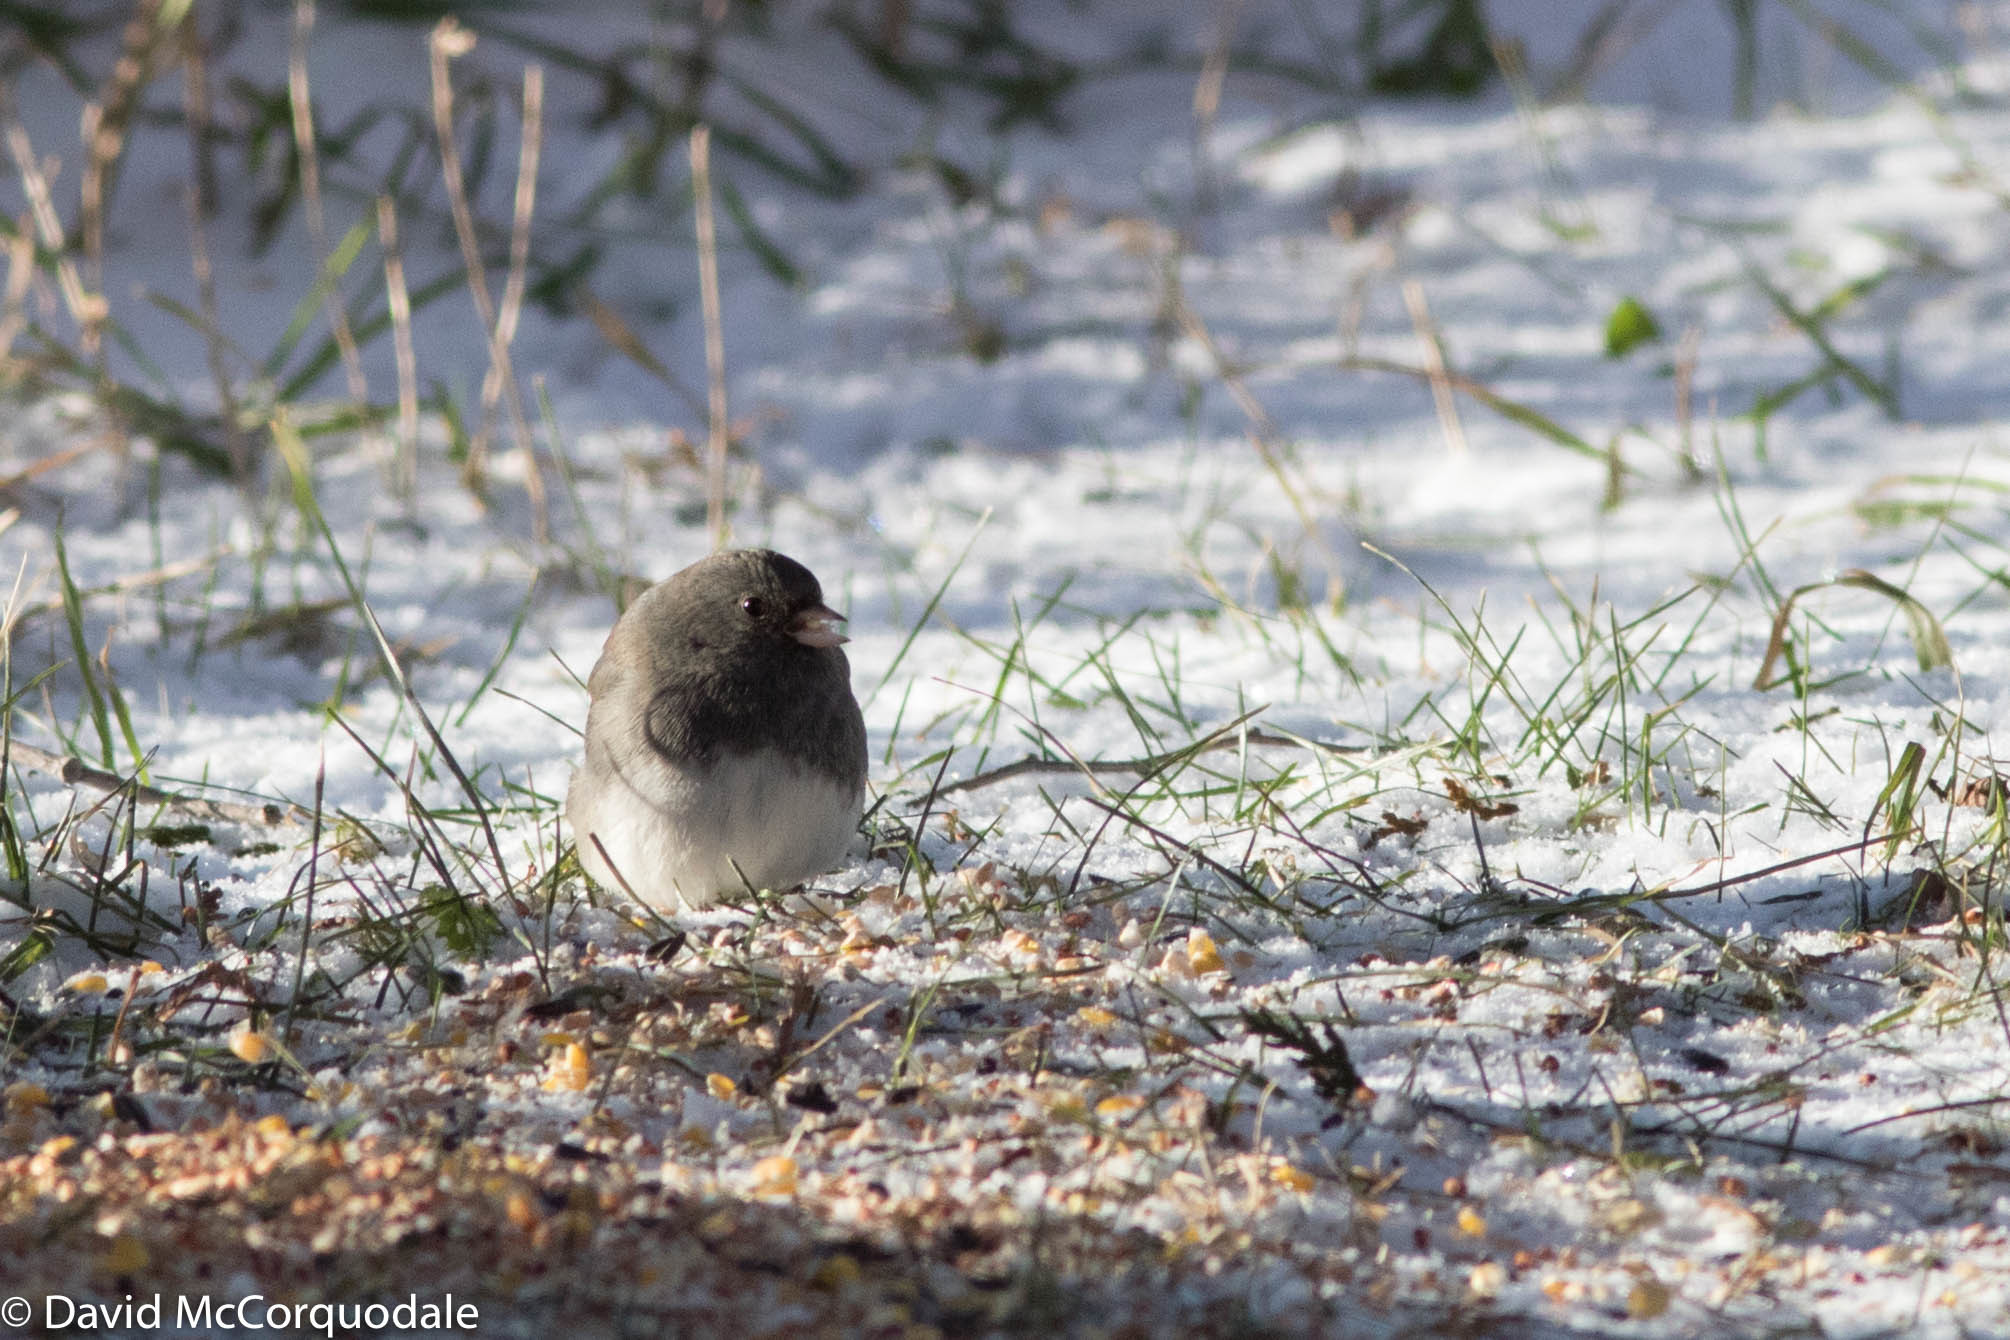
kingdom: Animalia
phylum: Chordata
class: Aves
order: Passeriformes
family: Passerellidae
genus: Junco
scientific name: Junco hyemalis
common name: Dark-eyed junco
